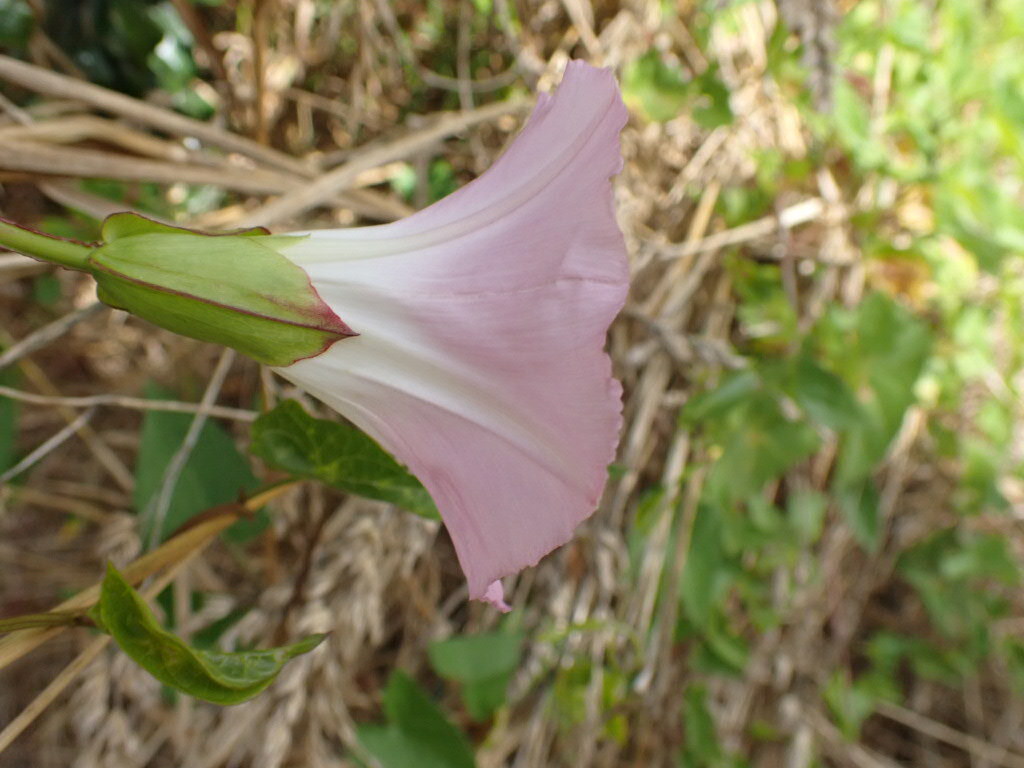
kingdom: Plantae
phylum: Tracheophyta
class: Magnoliopsida
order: Solanales
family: Convolvulaceae
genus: Calystegia
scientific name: Calystegia sepium
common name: Hedge bindweed
